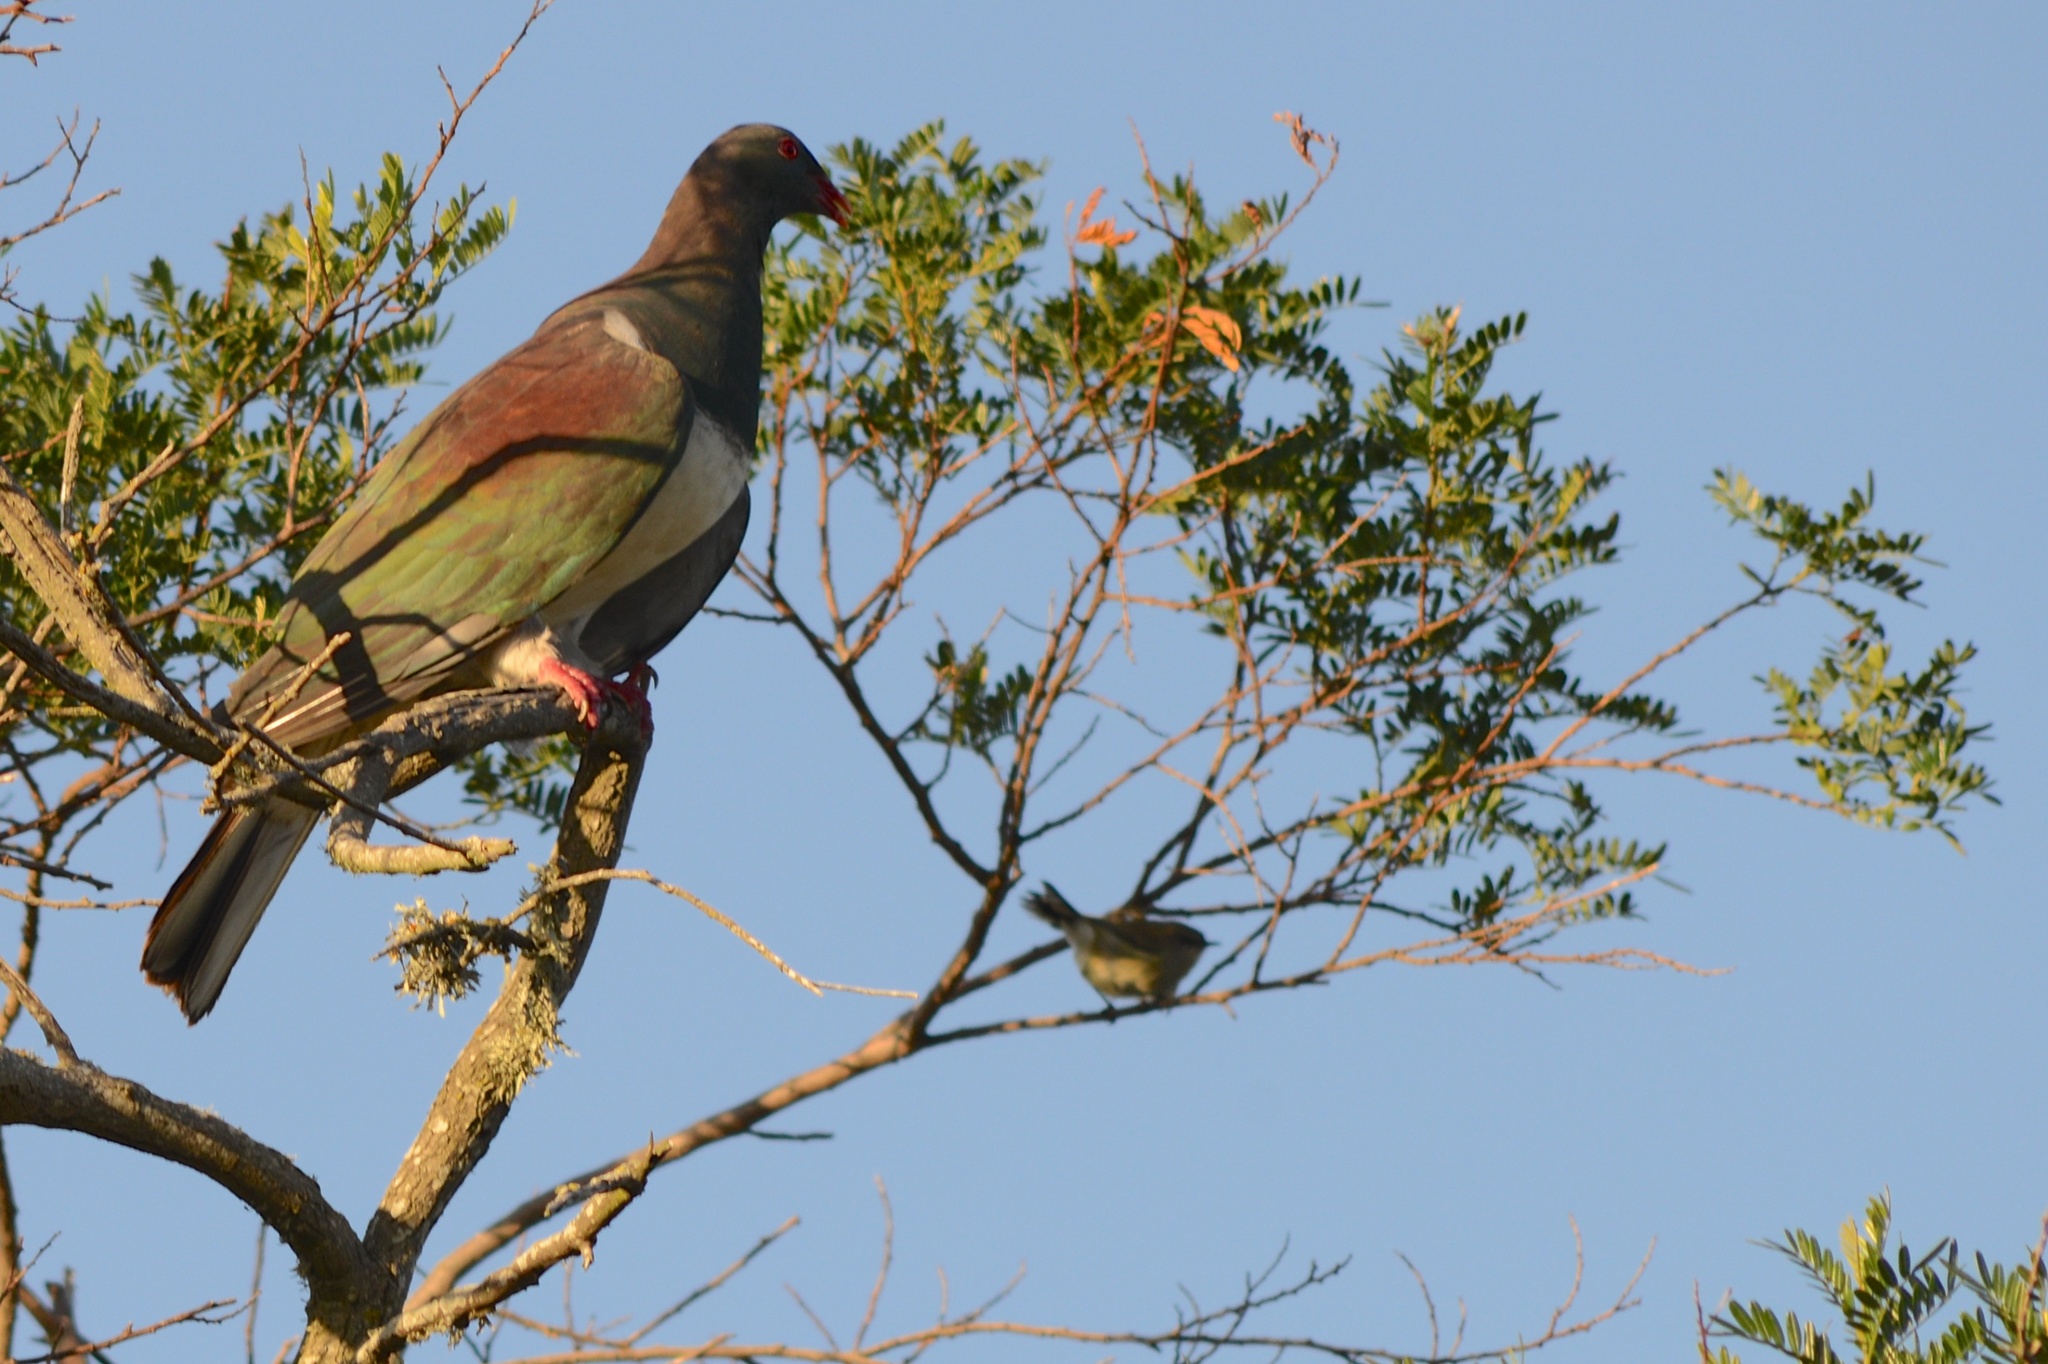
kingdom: Animalia
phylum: Chordata
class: Aves
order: Columbiformes
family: Columbidae
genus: Hemiphaga
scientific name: Hemiphaga novaeseelandiae
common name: New zealand pigeon
